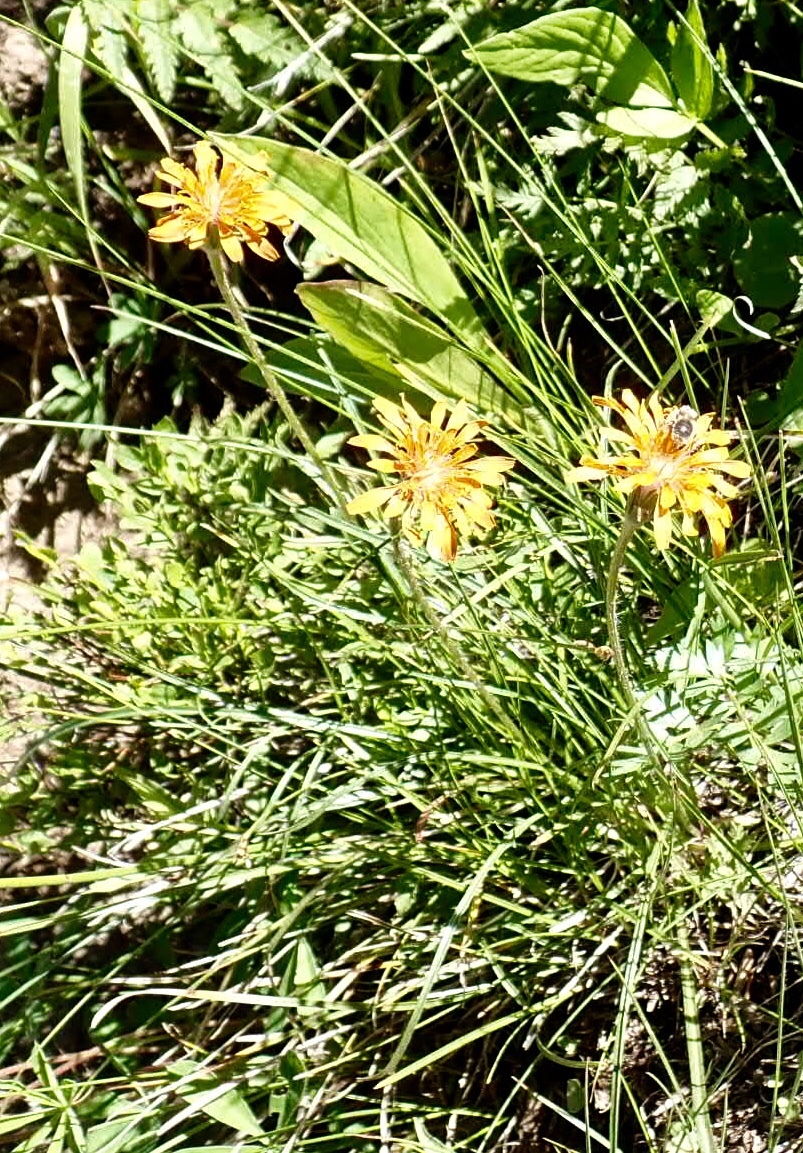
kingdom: Plantae
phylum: Tracheophyta
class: Magnoliopsida
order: Asterales
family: Asteraceae
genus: Agoseris
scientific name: Agoseris aurantiaca
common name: Mountain agoseris
